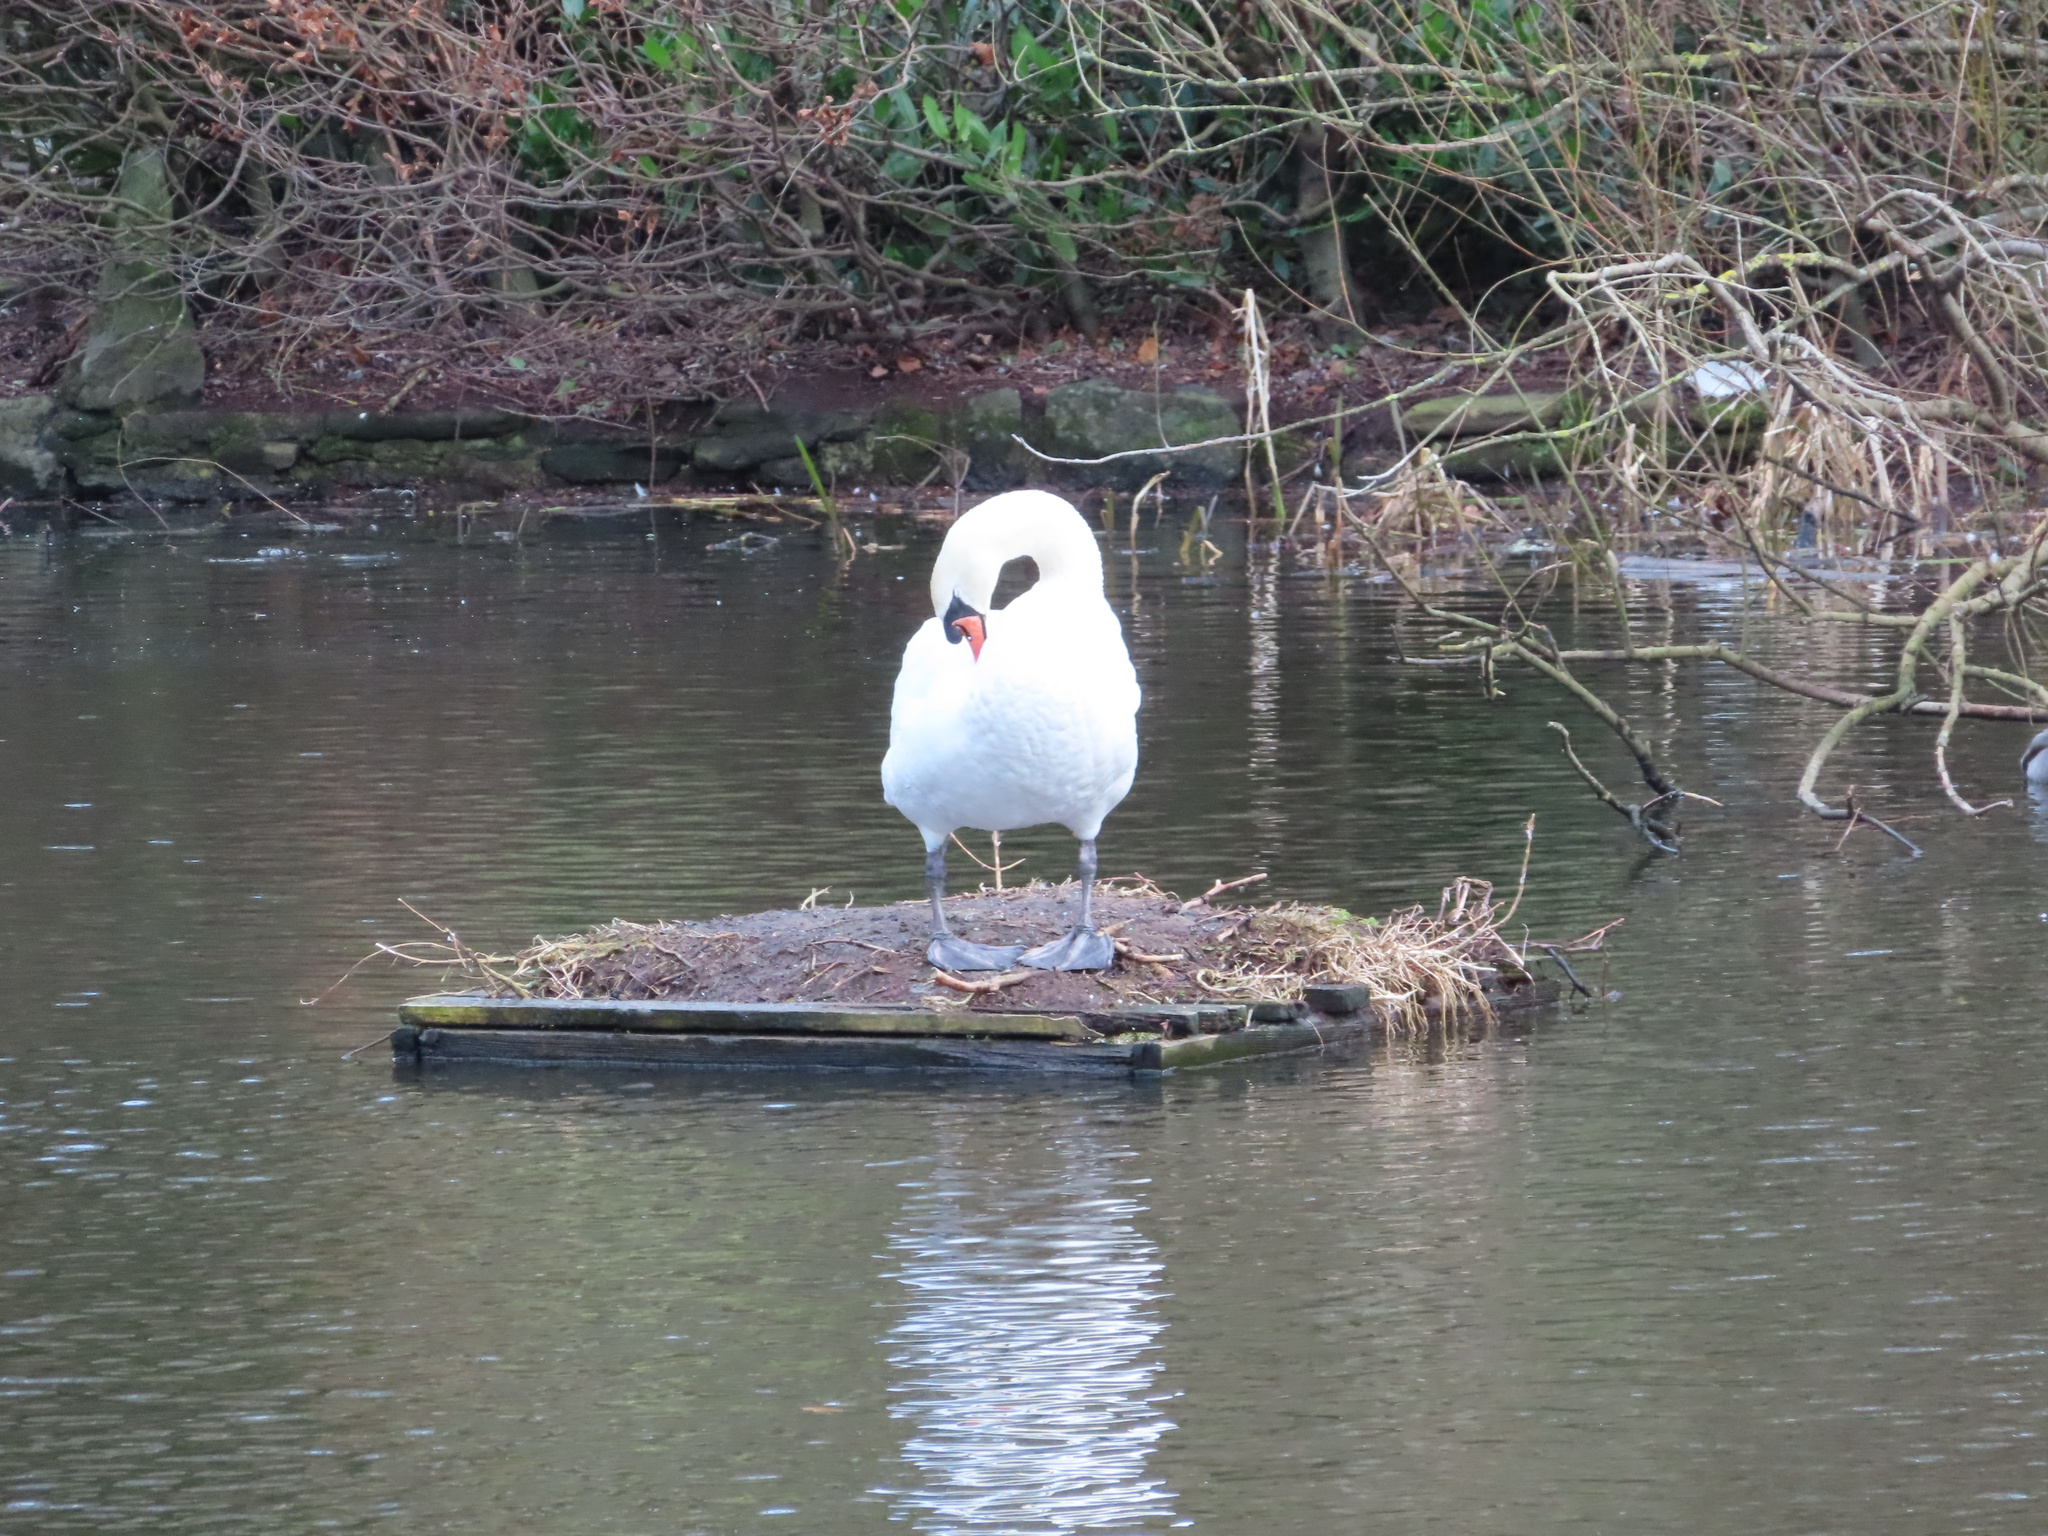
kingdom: Animalia
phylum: Chordata
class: Aves
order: Anseriformes
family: Anatidae
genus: Cygnus
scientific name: Cygnus olor
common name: Mute swan
